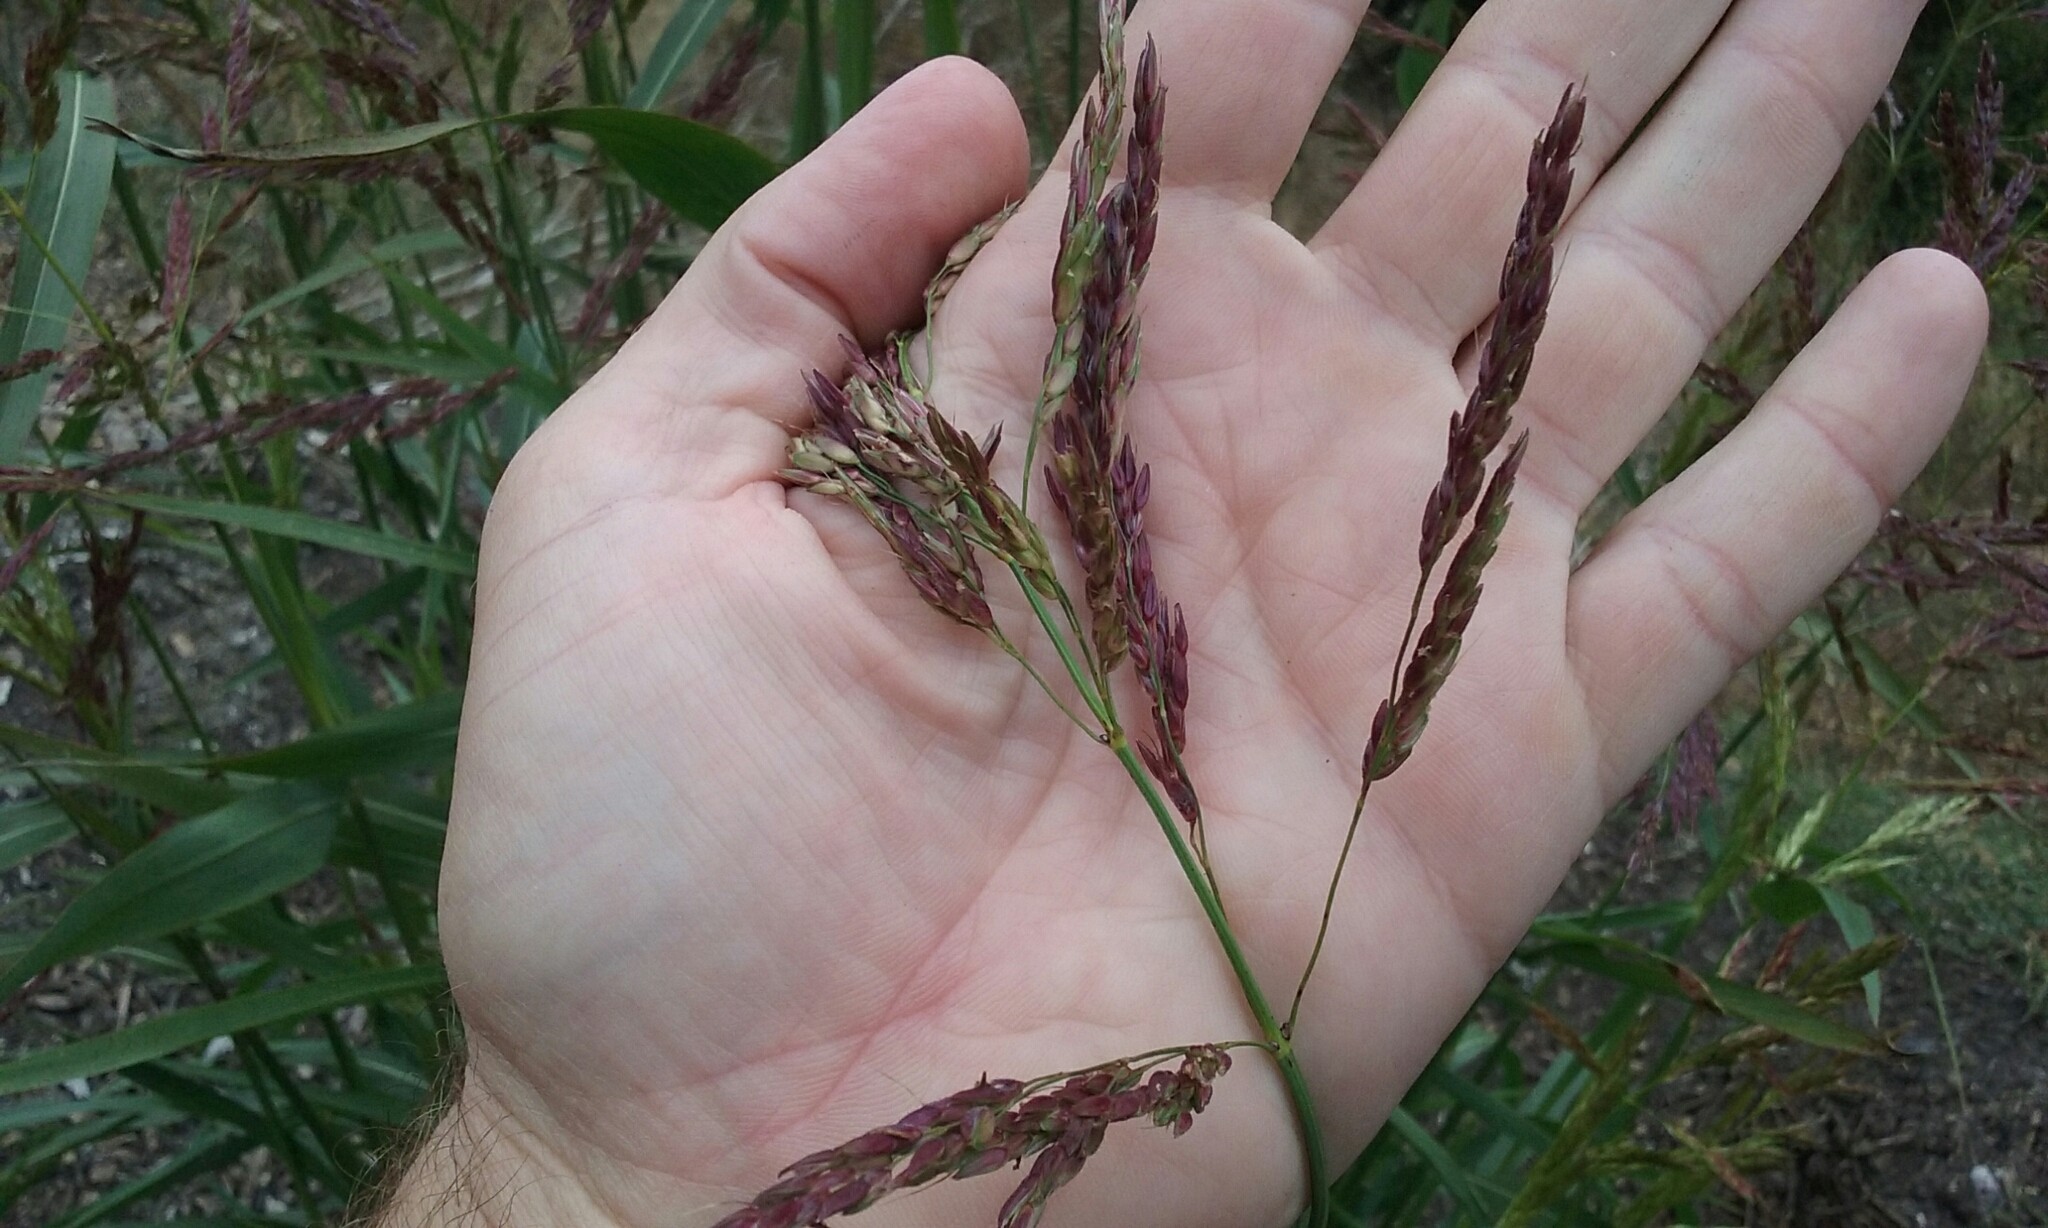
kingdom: Plantae
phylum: Tracheophyta
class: Liliopsida
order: Poales
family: Poaceae
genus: Sorghum
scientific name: Sorghum halepense
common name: Johnson-grass
